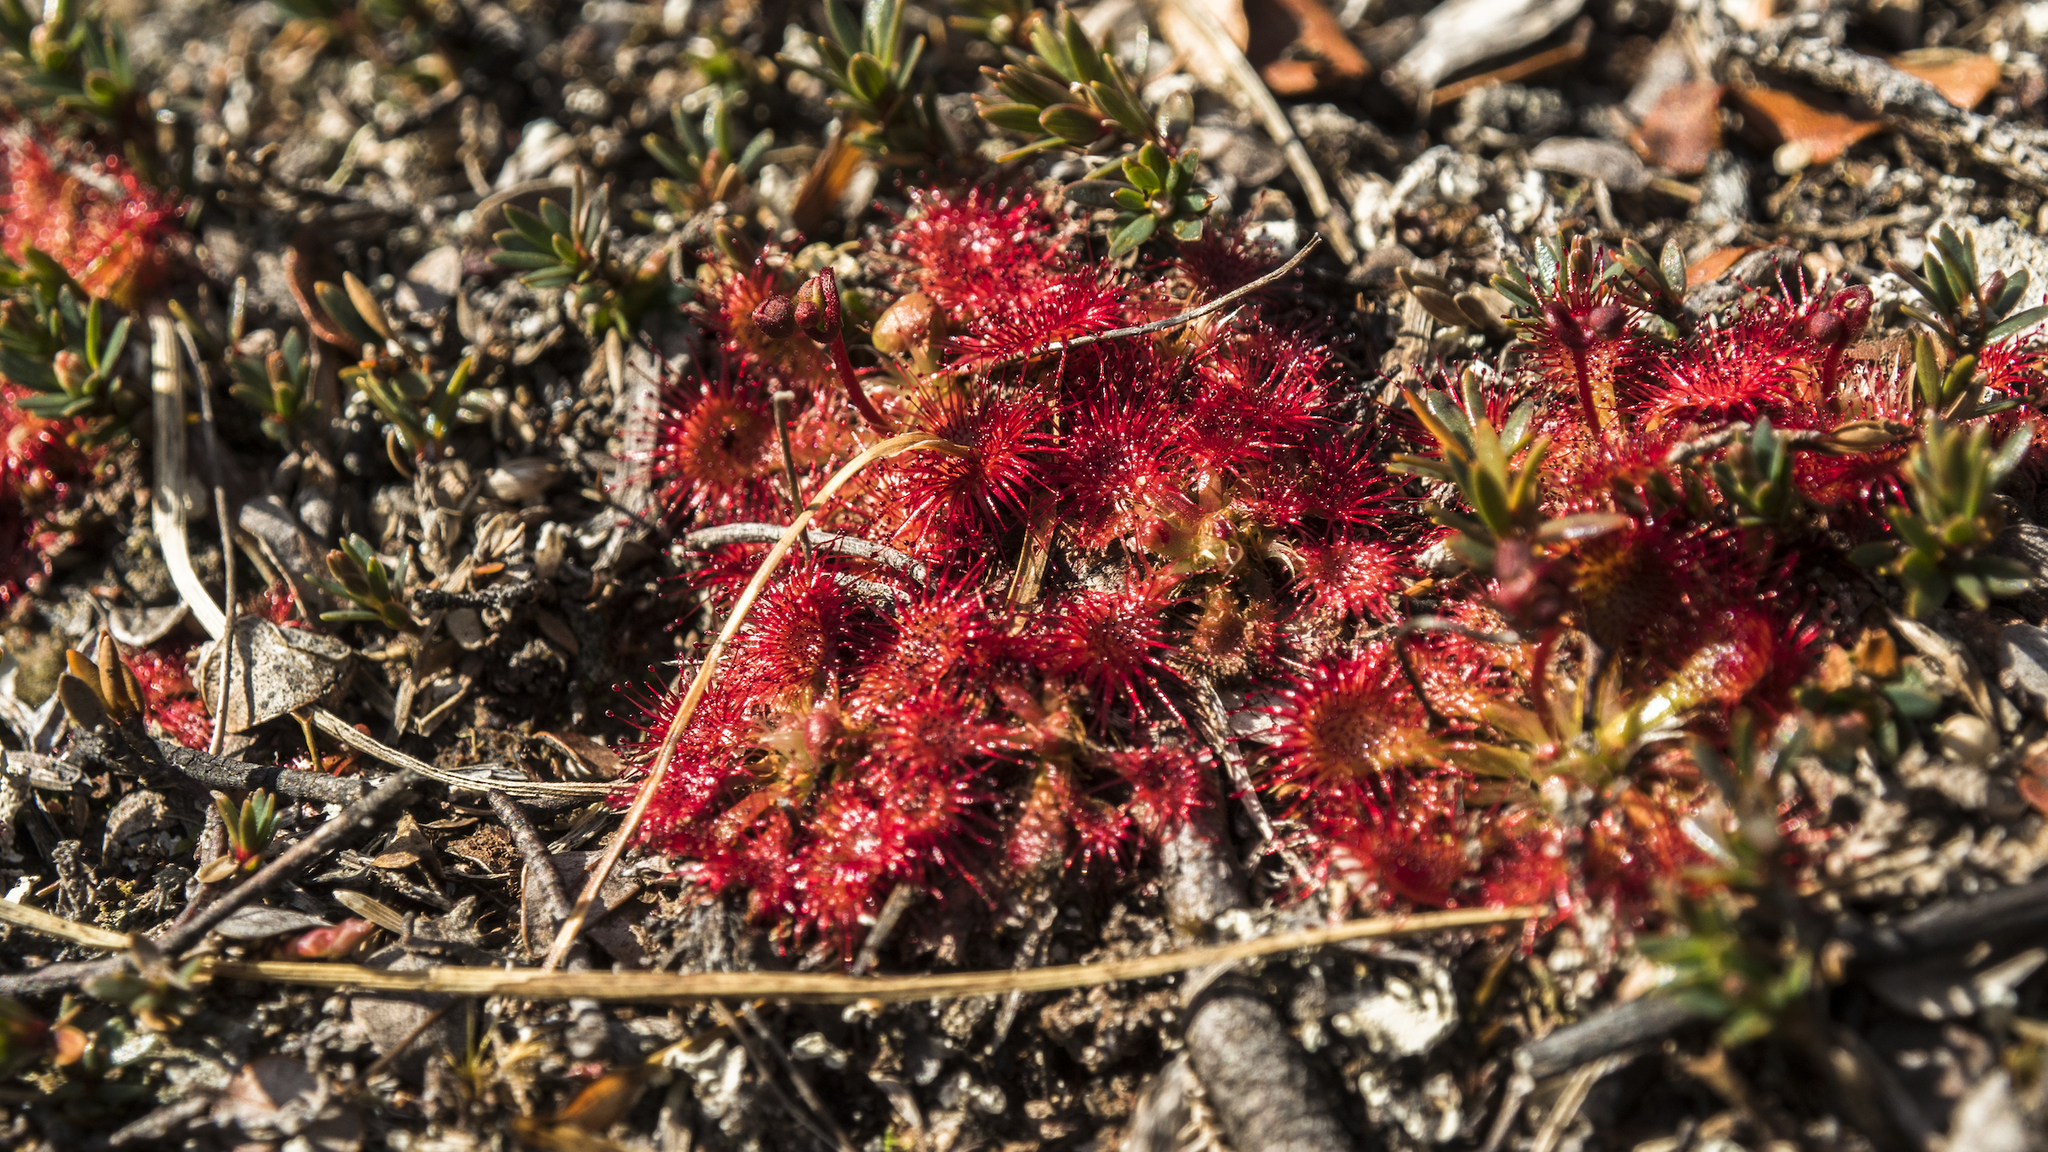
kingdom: Plantae
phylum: Tracheophyta
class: Magnoliopsida
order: Caryophyllales
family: Droseraceae
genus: Drosera
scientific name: Drosera spatulata
